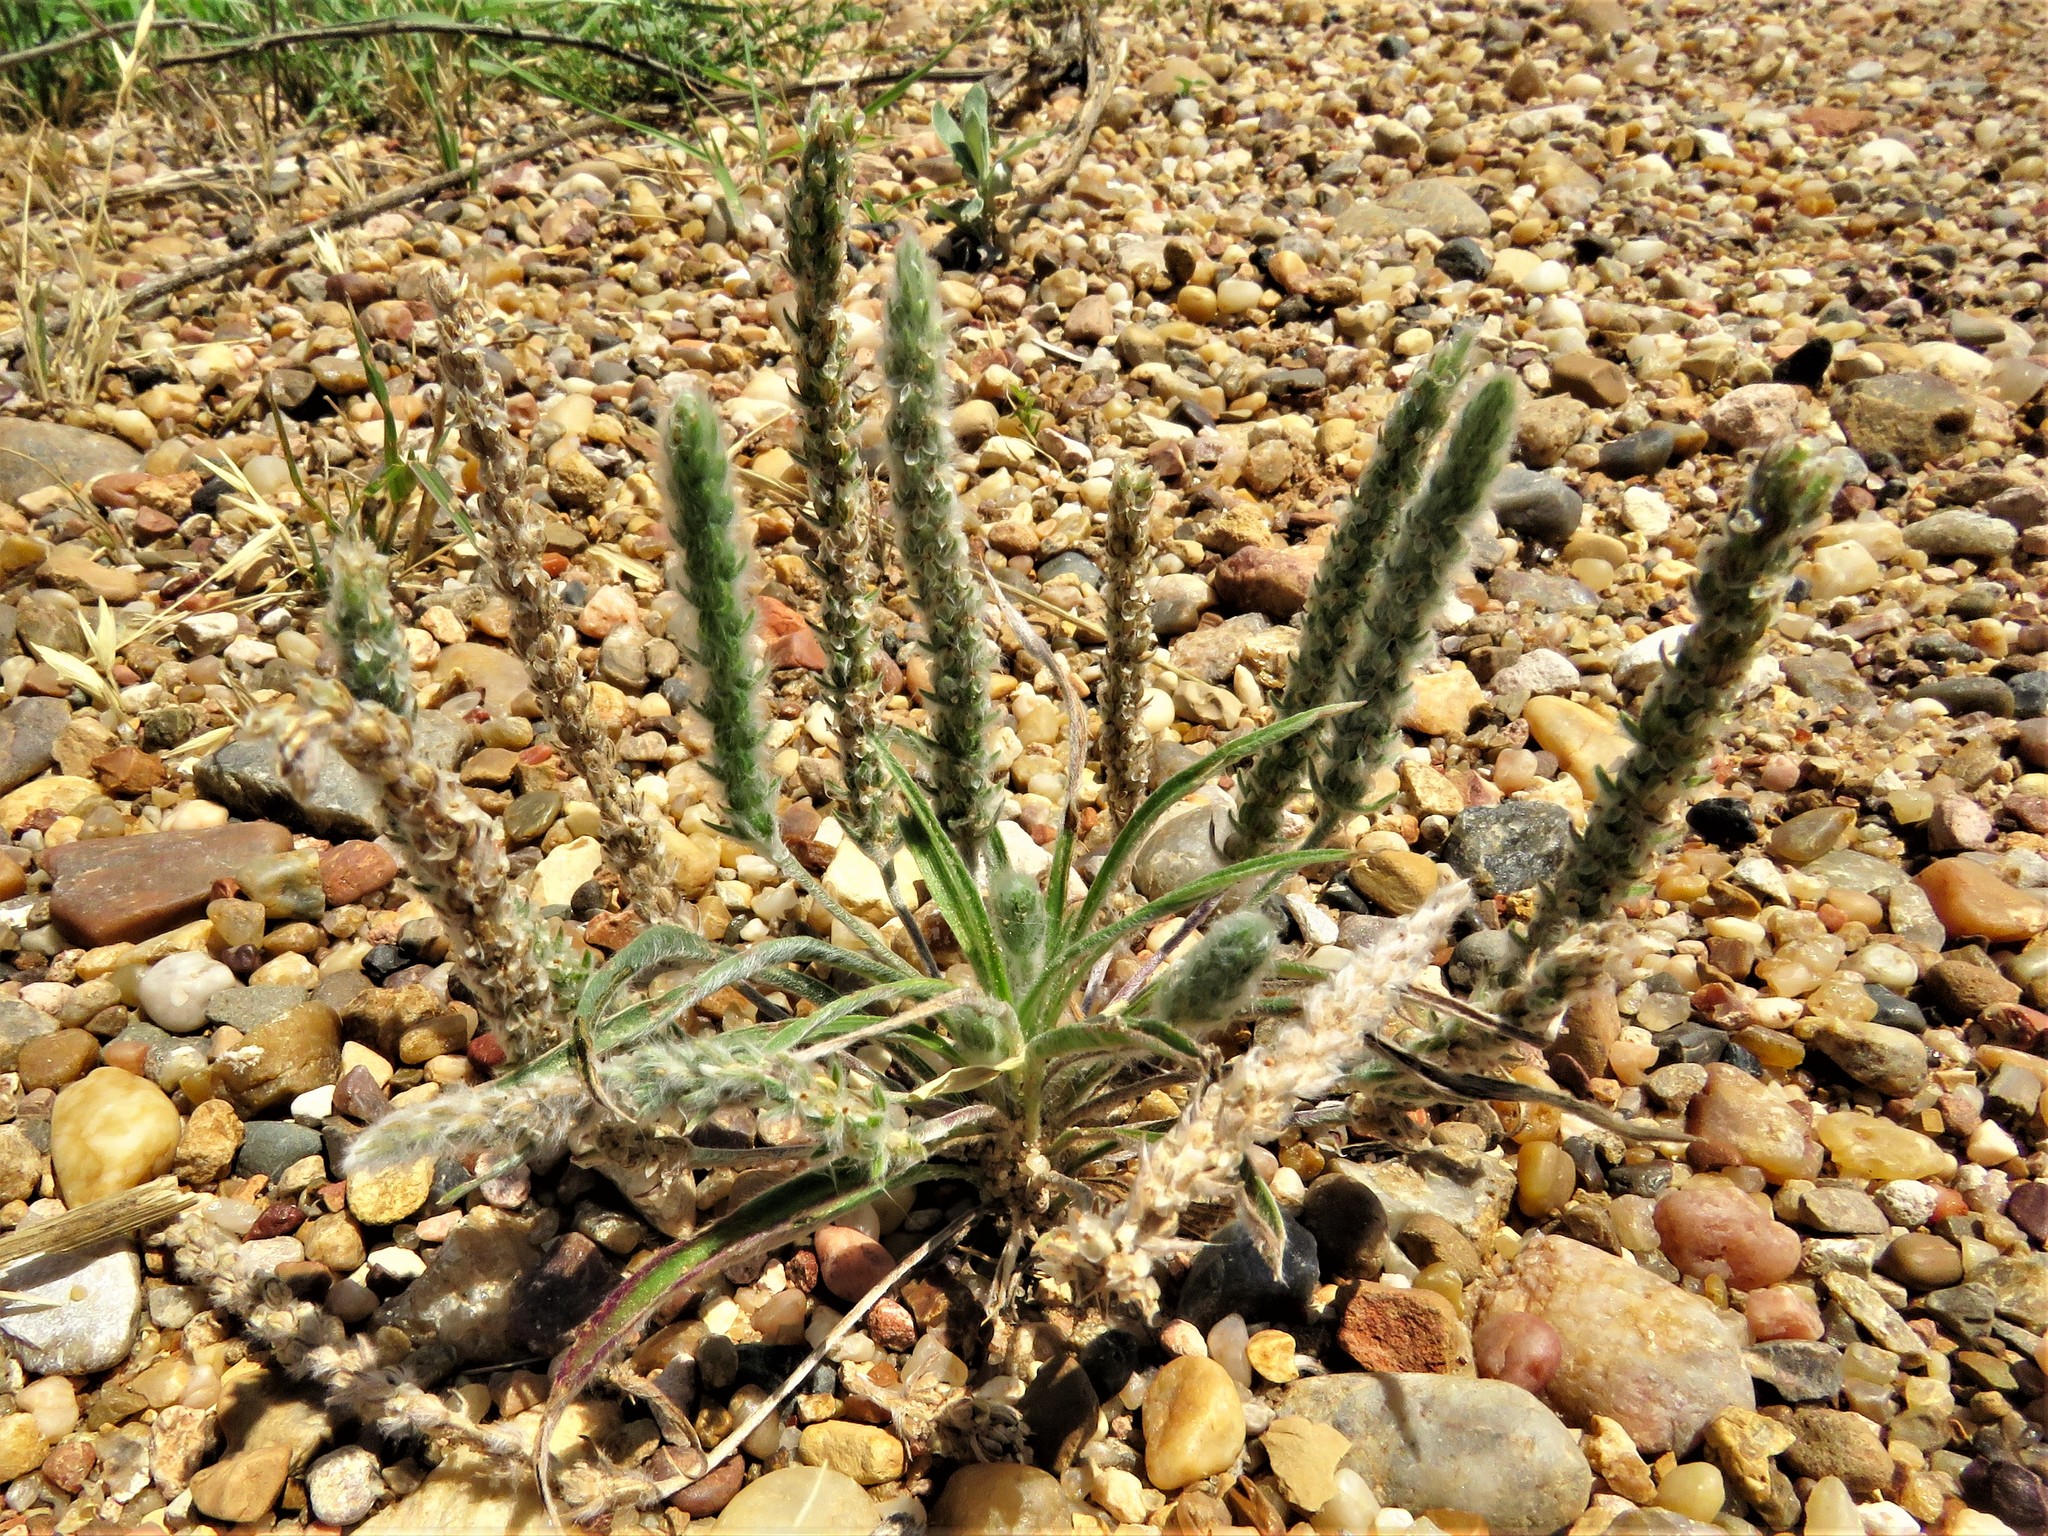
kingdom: Plantae
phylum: Tracheophyta
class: Magnoliopsida
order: Lamiales
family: Plantaginaceae
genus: Plantago
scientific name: Plantago patagonica
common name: Patagonia indian-wheat
